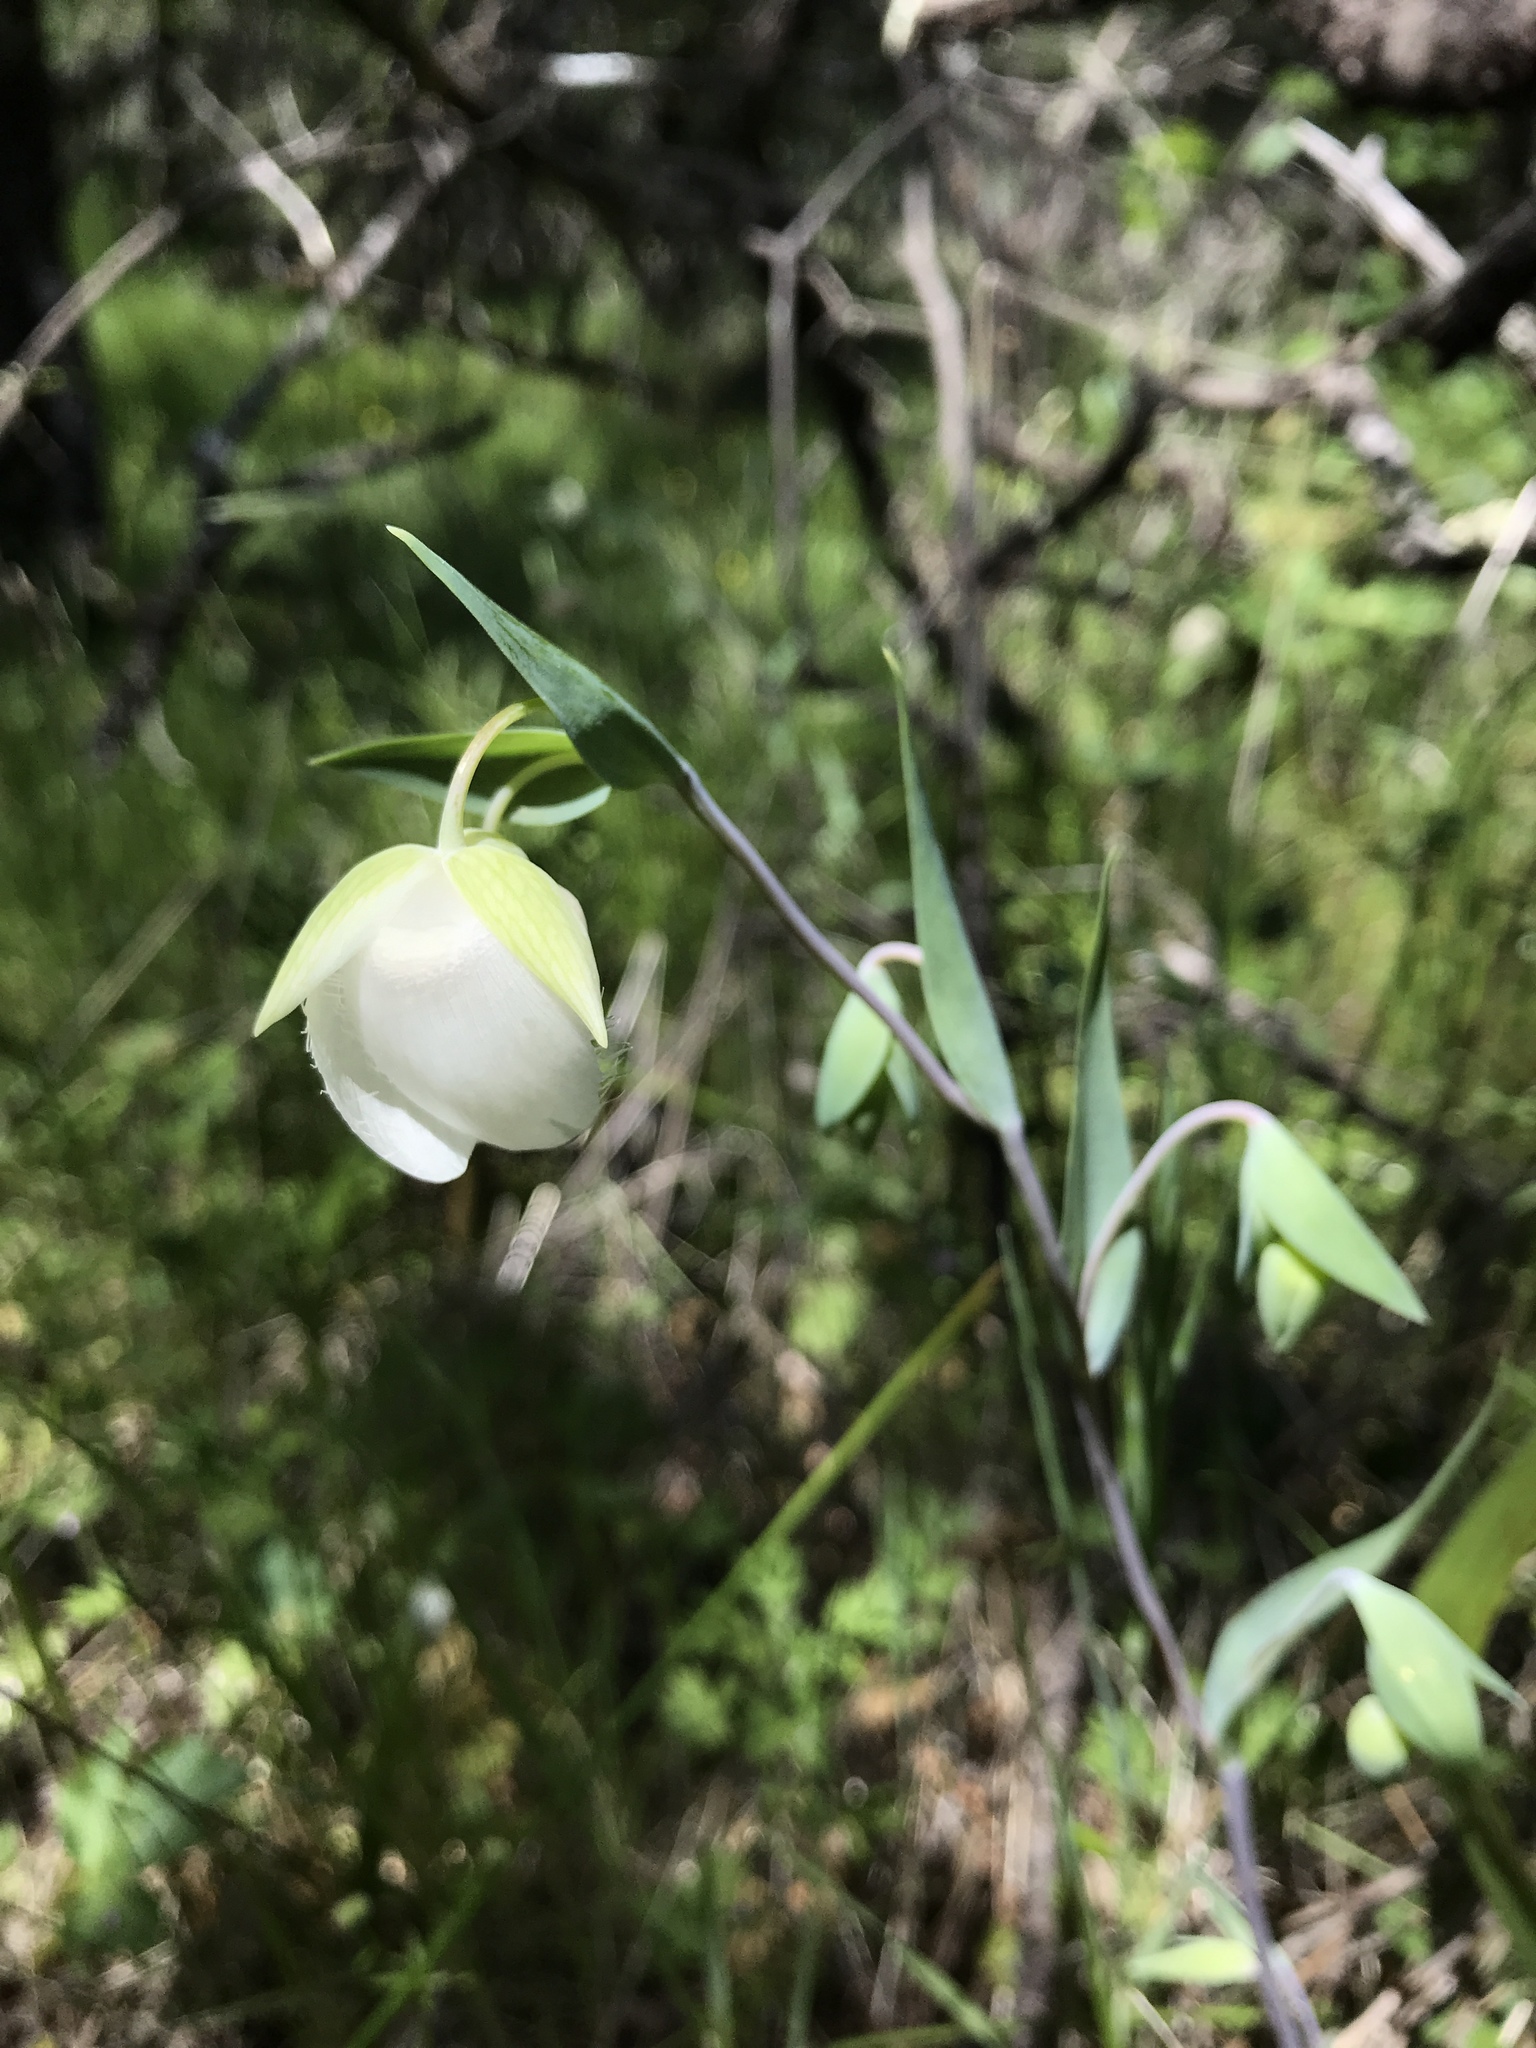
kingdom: Plantae
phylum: Tracheophyta
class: Liliopsida
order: Liliales
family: Liliaceae
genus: Calochortus
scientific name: Calochortus albus
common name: Fairy-lantern
